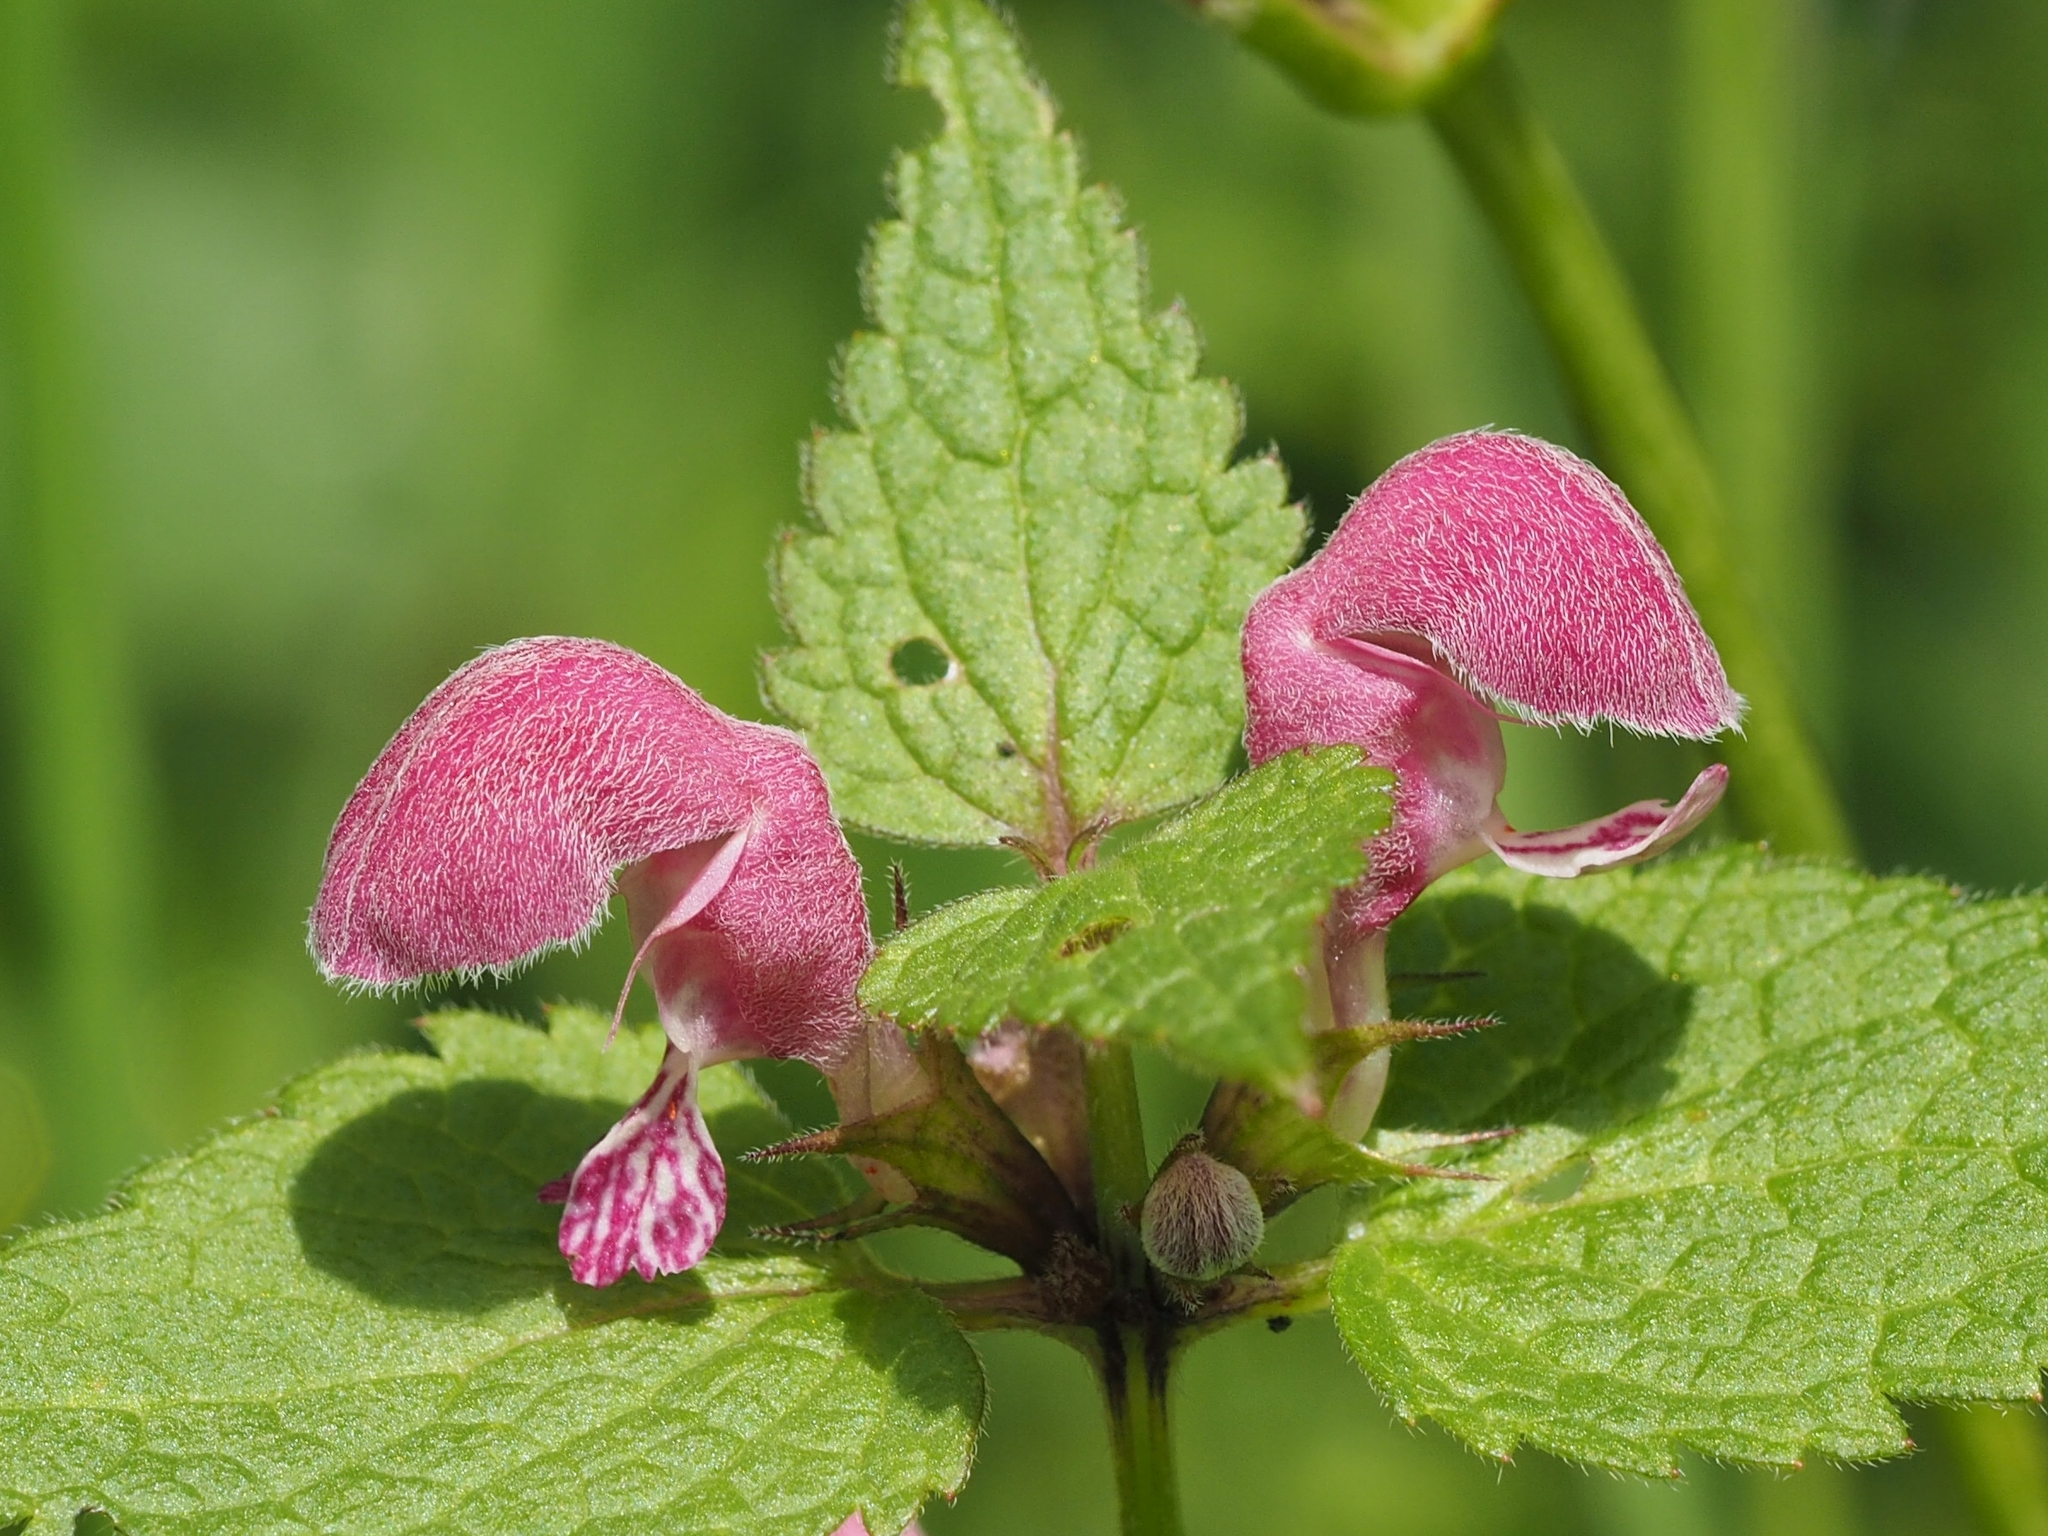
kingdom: Plantae
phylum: Tracheophyta
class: Magnoliopsida
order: Lamiales
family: Lamiaceae
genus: Lamium
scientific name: Lamium maculatum
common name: Spotted dead-nettle
